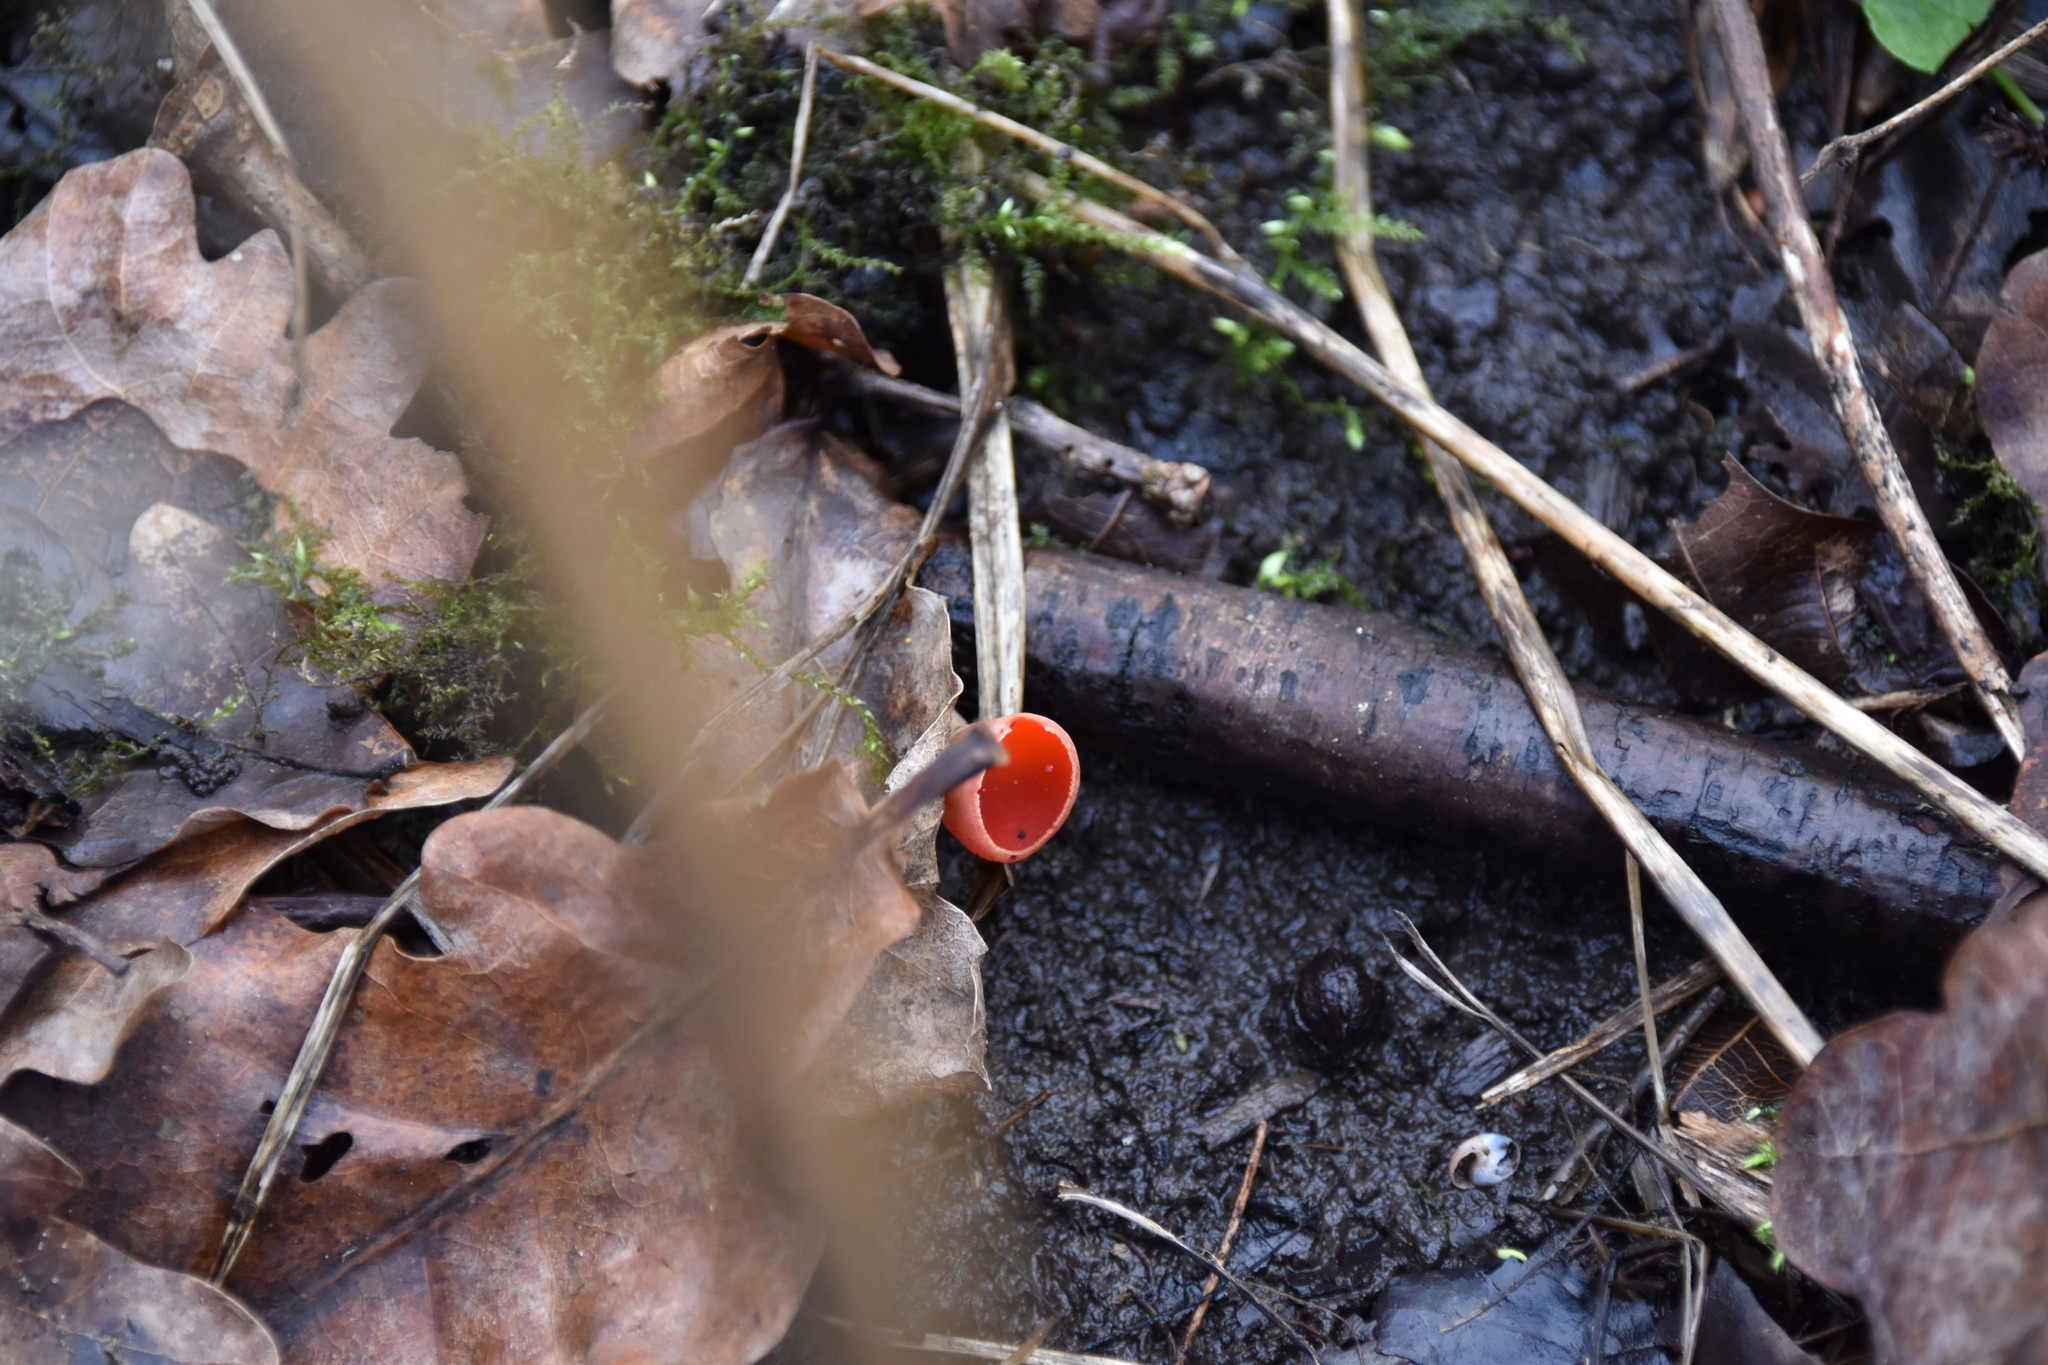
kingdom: Fungi
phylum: Ascomycota
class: Pezizomycetes
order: Pezizales
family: Sarcoscyphaceae
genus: Sarcoscypha
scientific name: Sarcoscypha
